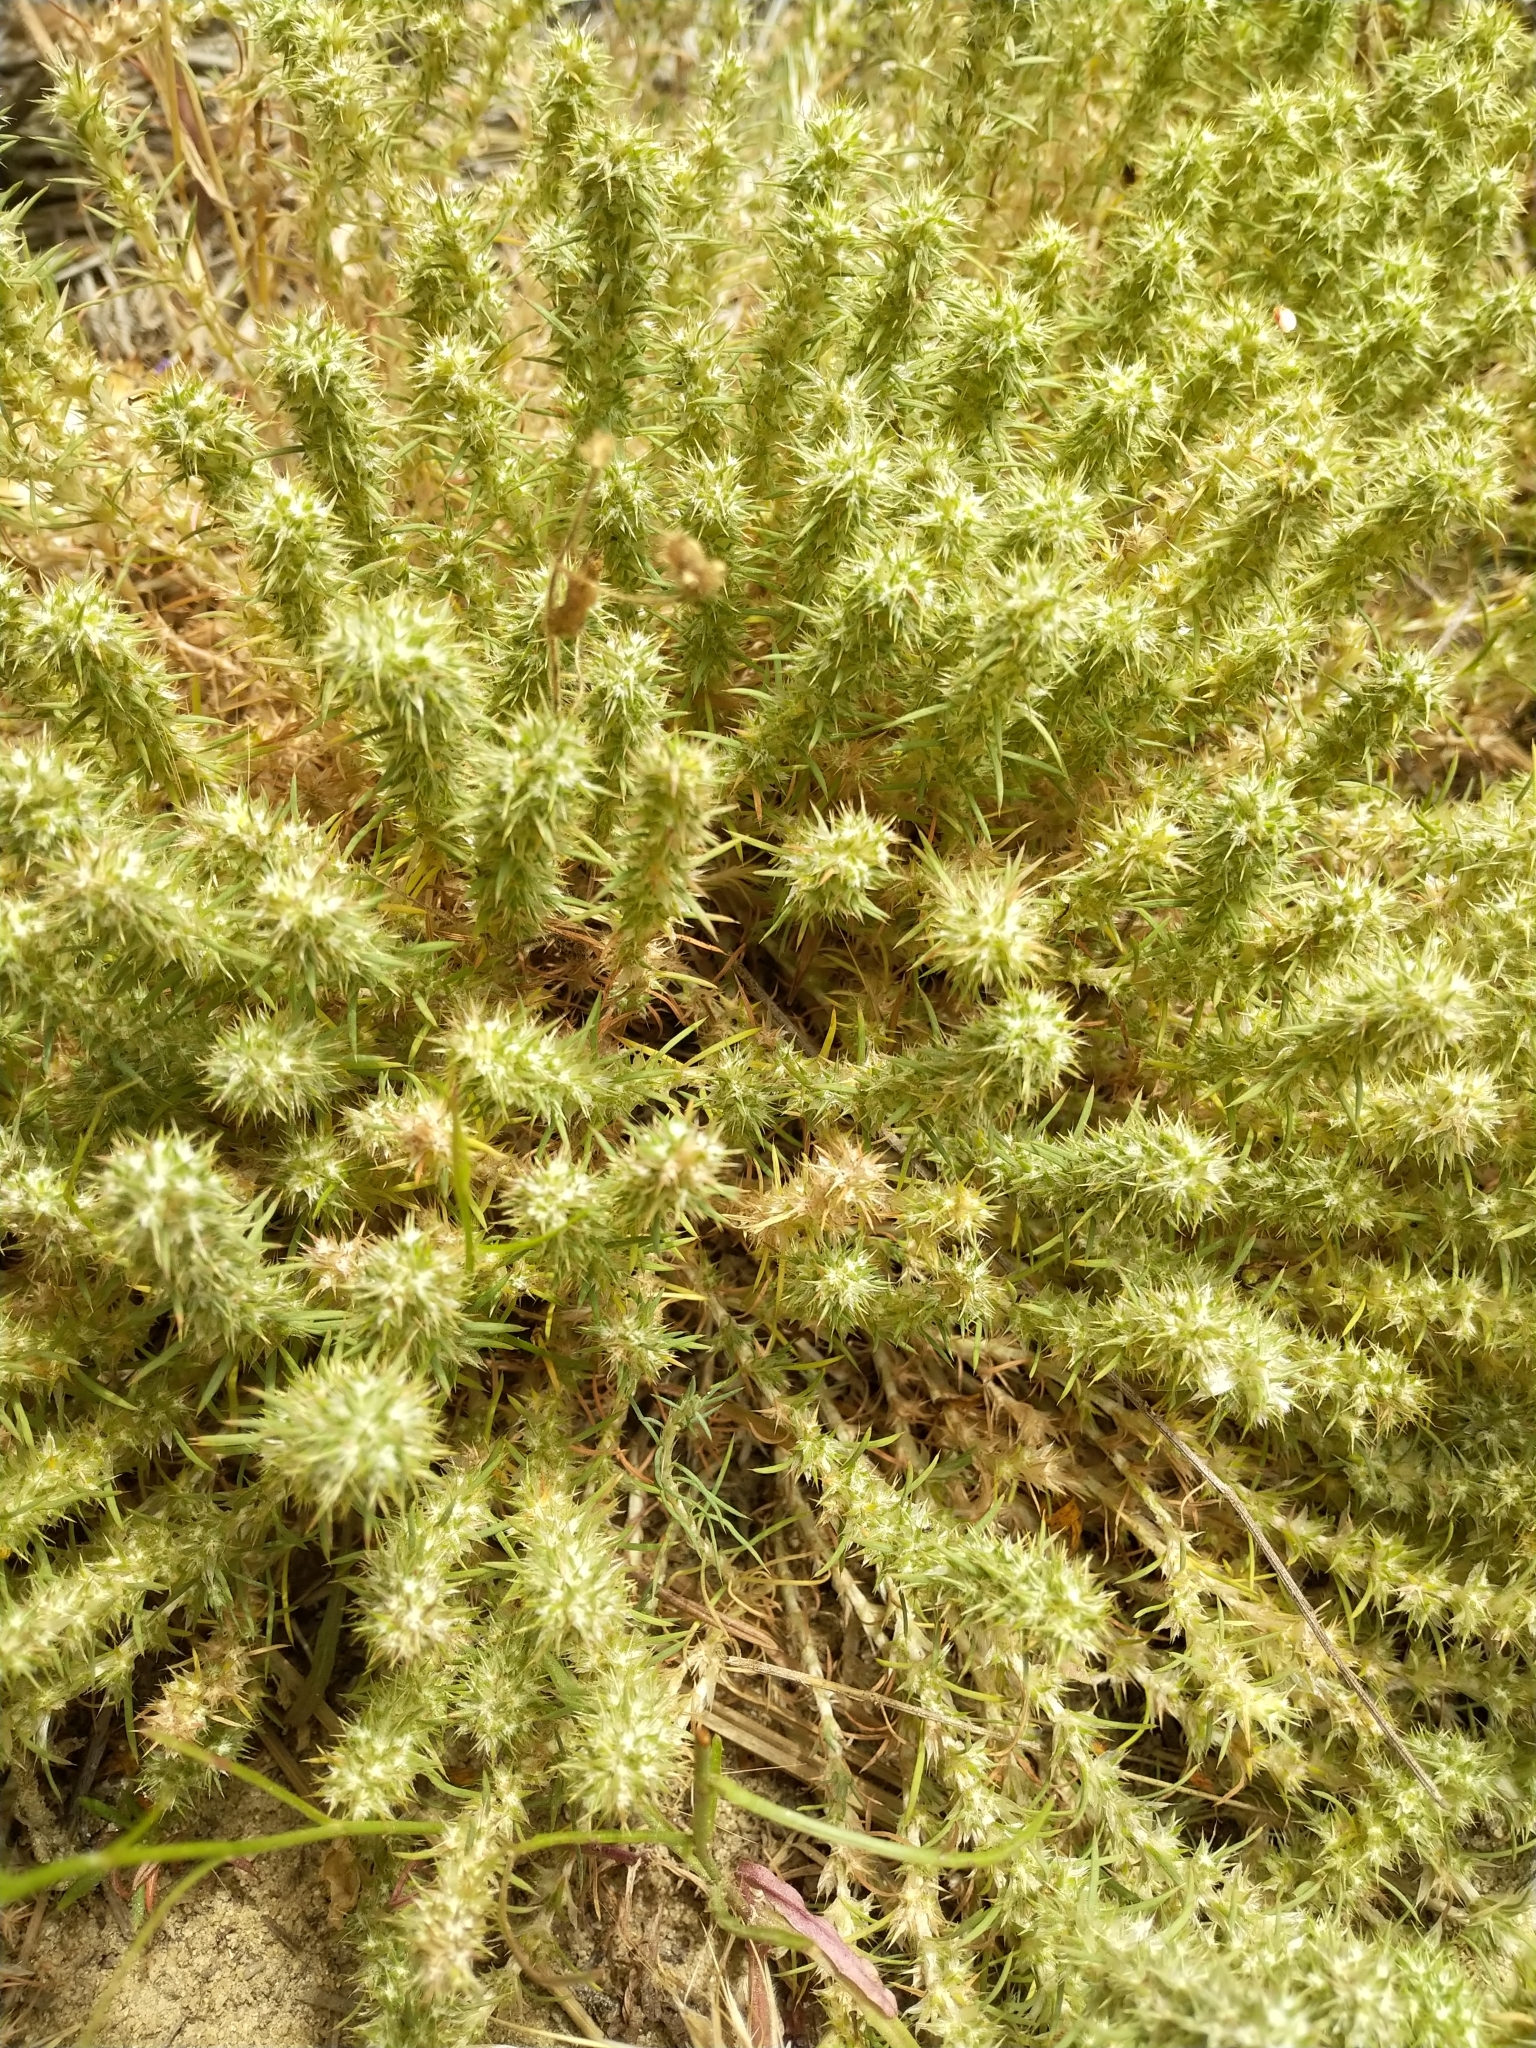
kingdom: Plantae
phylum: Tracheophyta
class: Magnoliopsida
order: Caryophyllales
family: Caryophyllaceae
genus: Cardionema
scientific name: Cardionema ramosissima
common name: Sandcarpet
